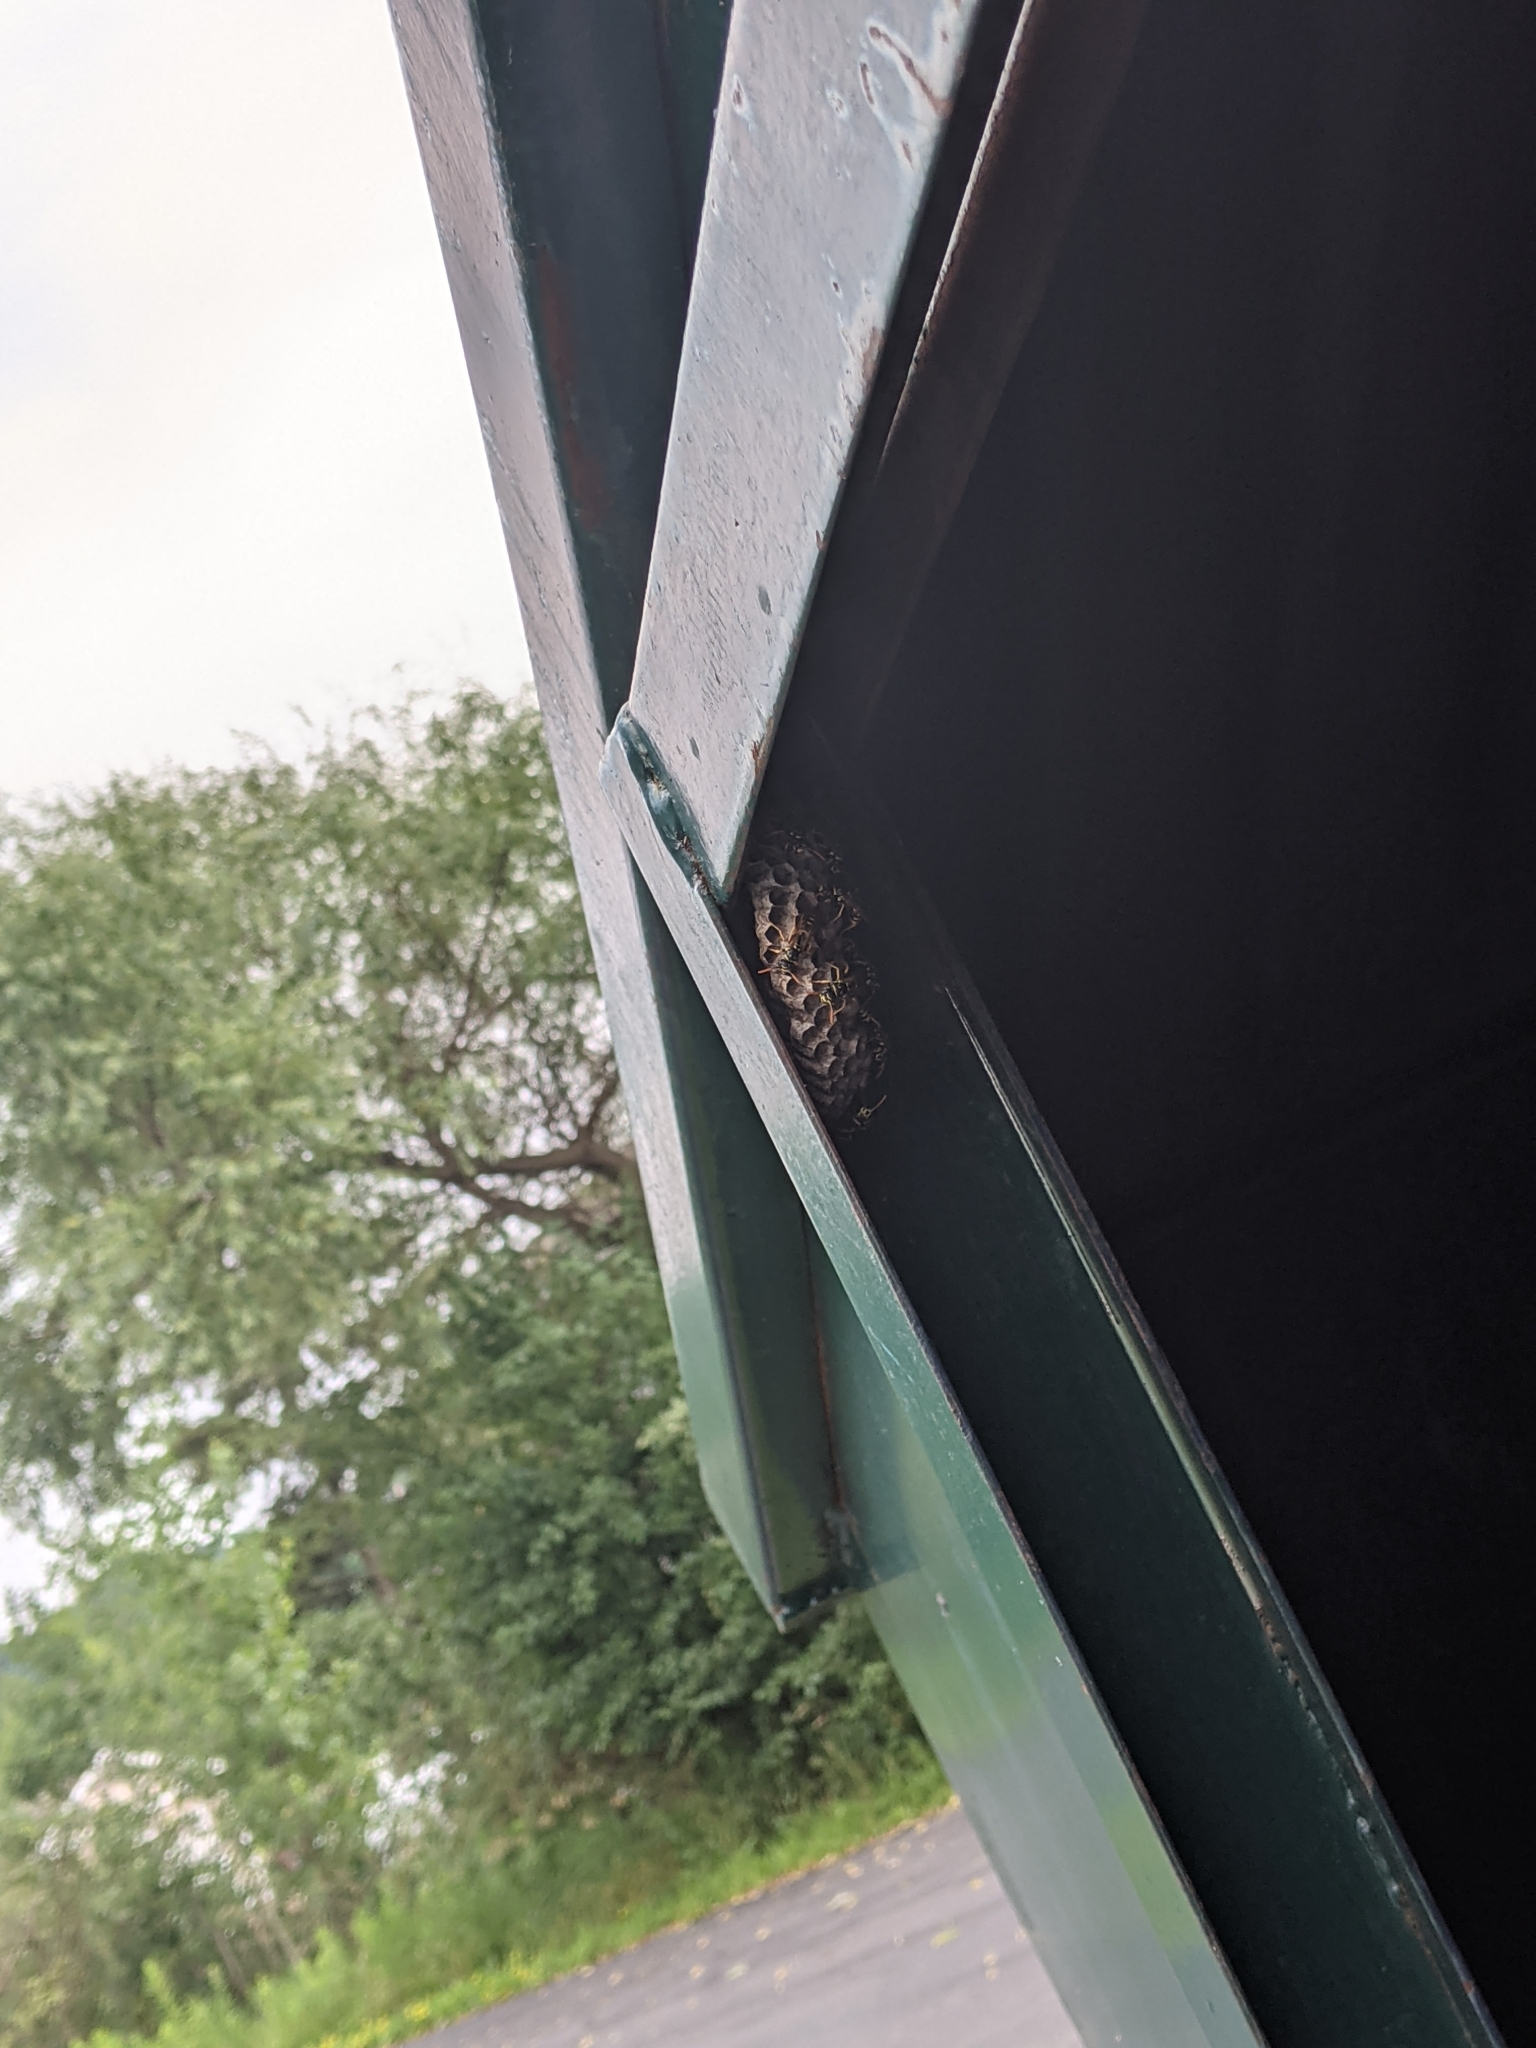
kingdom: Animalia
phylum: Arthropoda
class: Insecta
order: Hymenoptera
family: Eumenidae
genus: Polistes
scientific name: Polistes dominula
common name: Paper wasp
